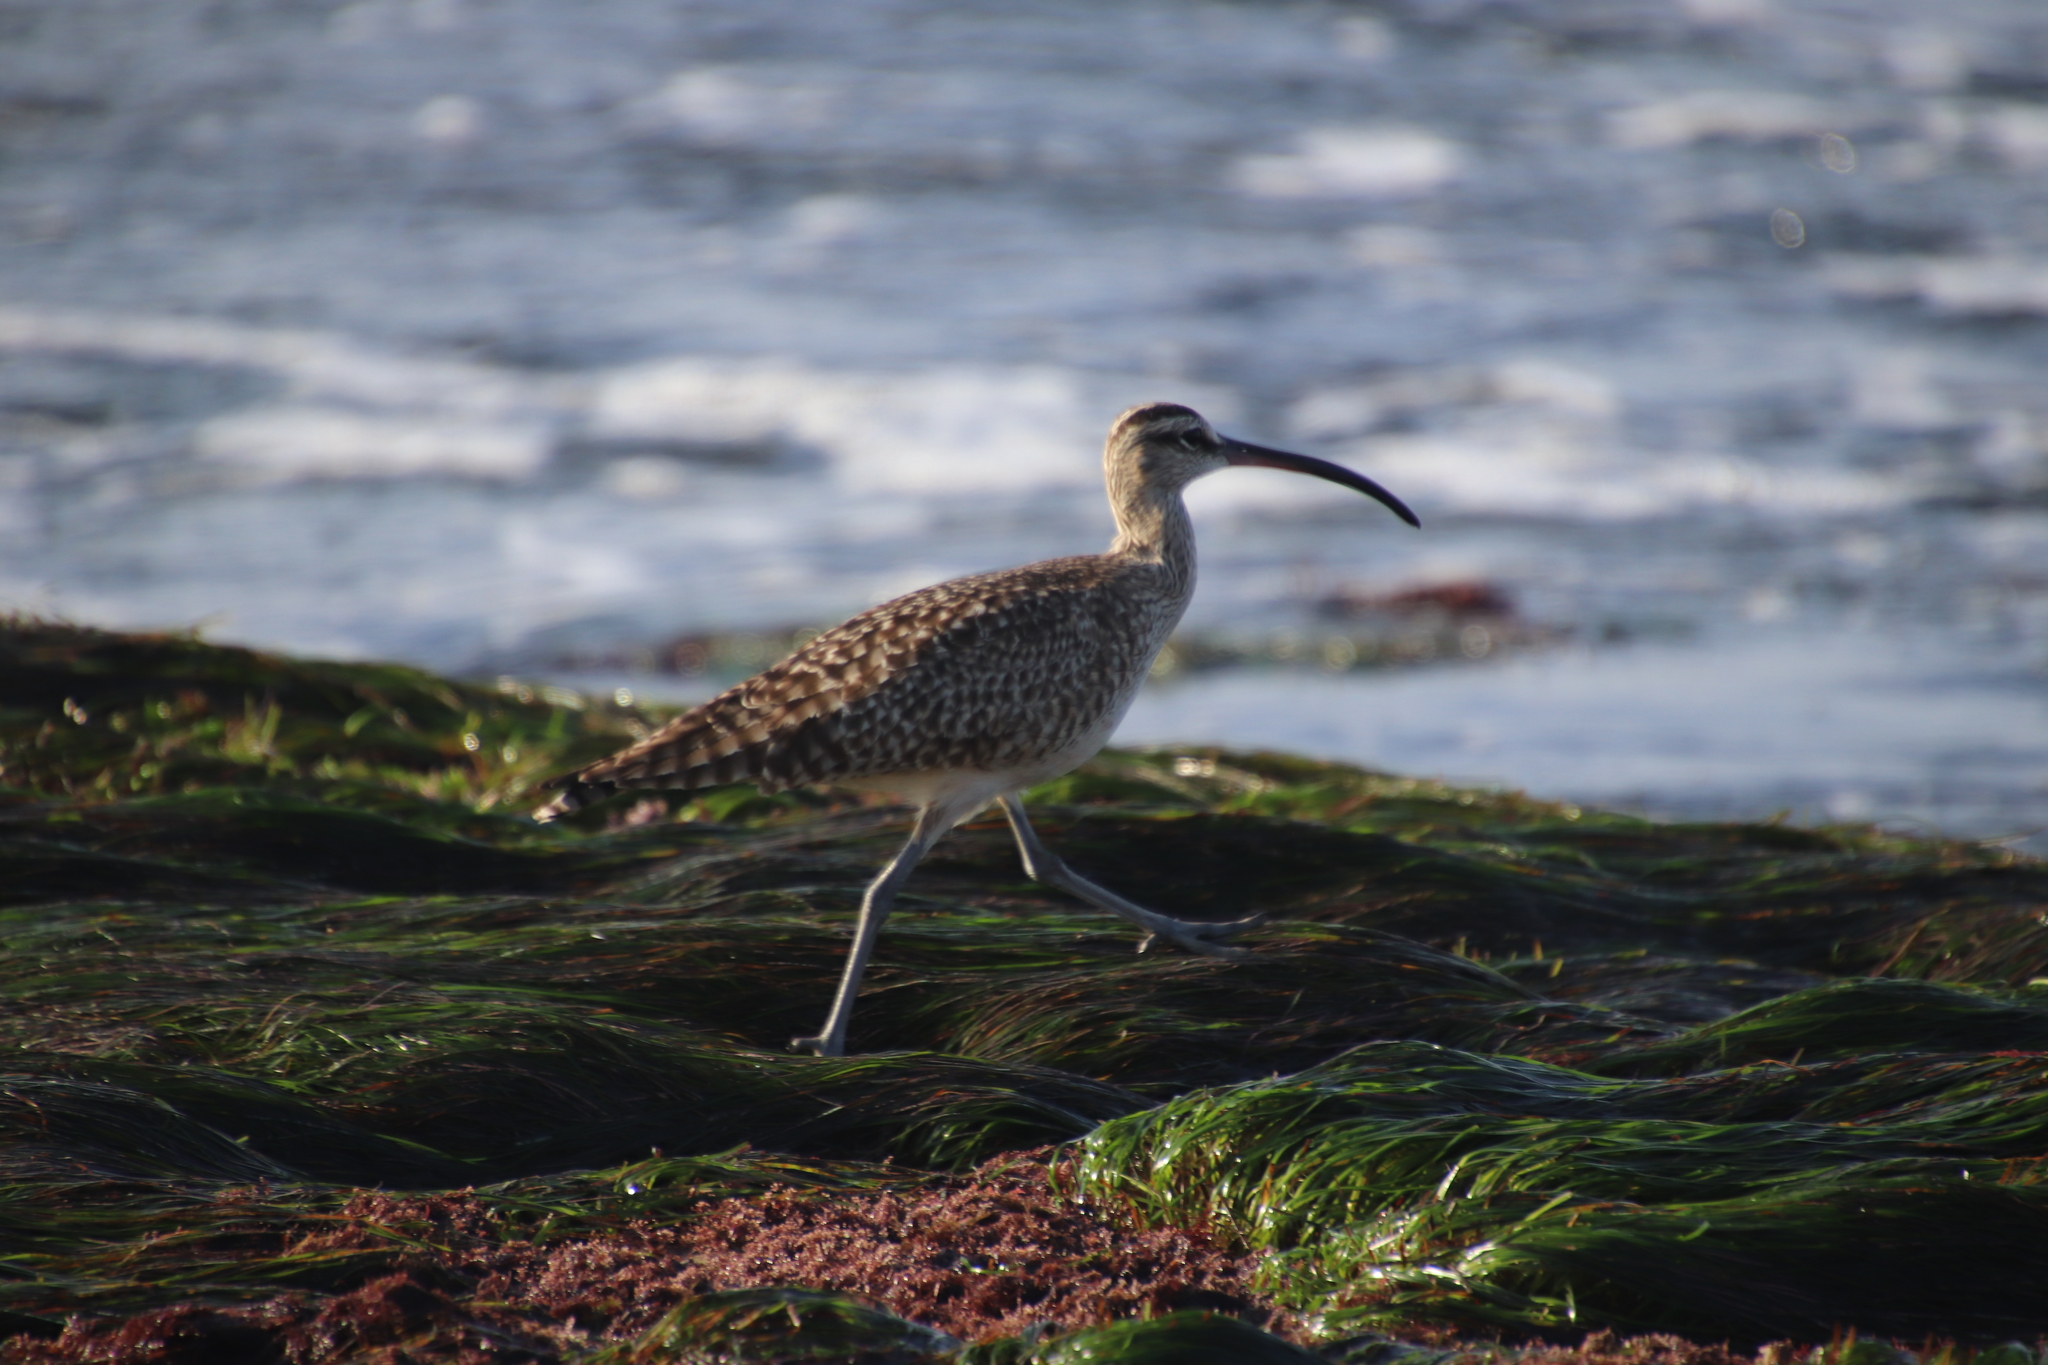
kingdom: Animalia
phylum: Chordata
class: Aves
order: Charadriiformes
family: Scolopacidae
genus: Numenius
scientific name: Numenius phaeopus
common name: Whimbrel
